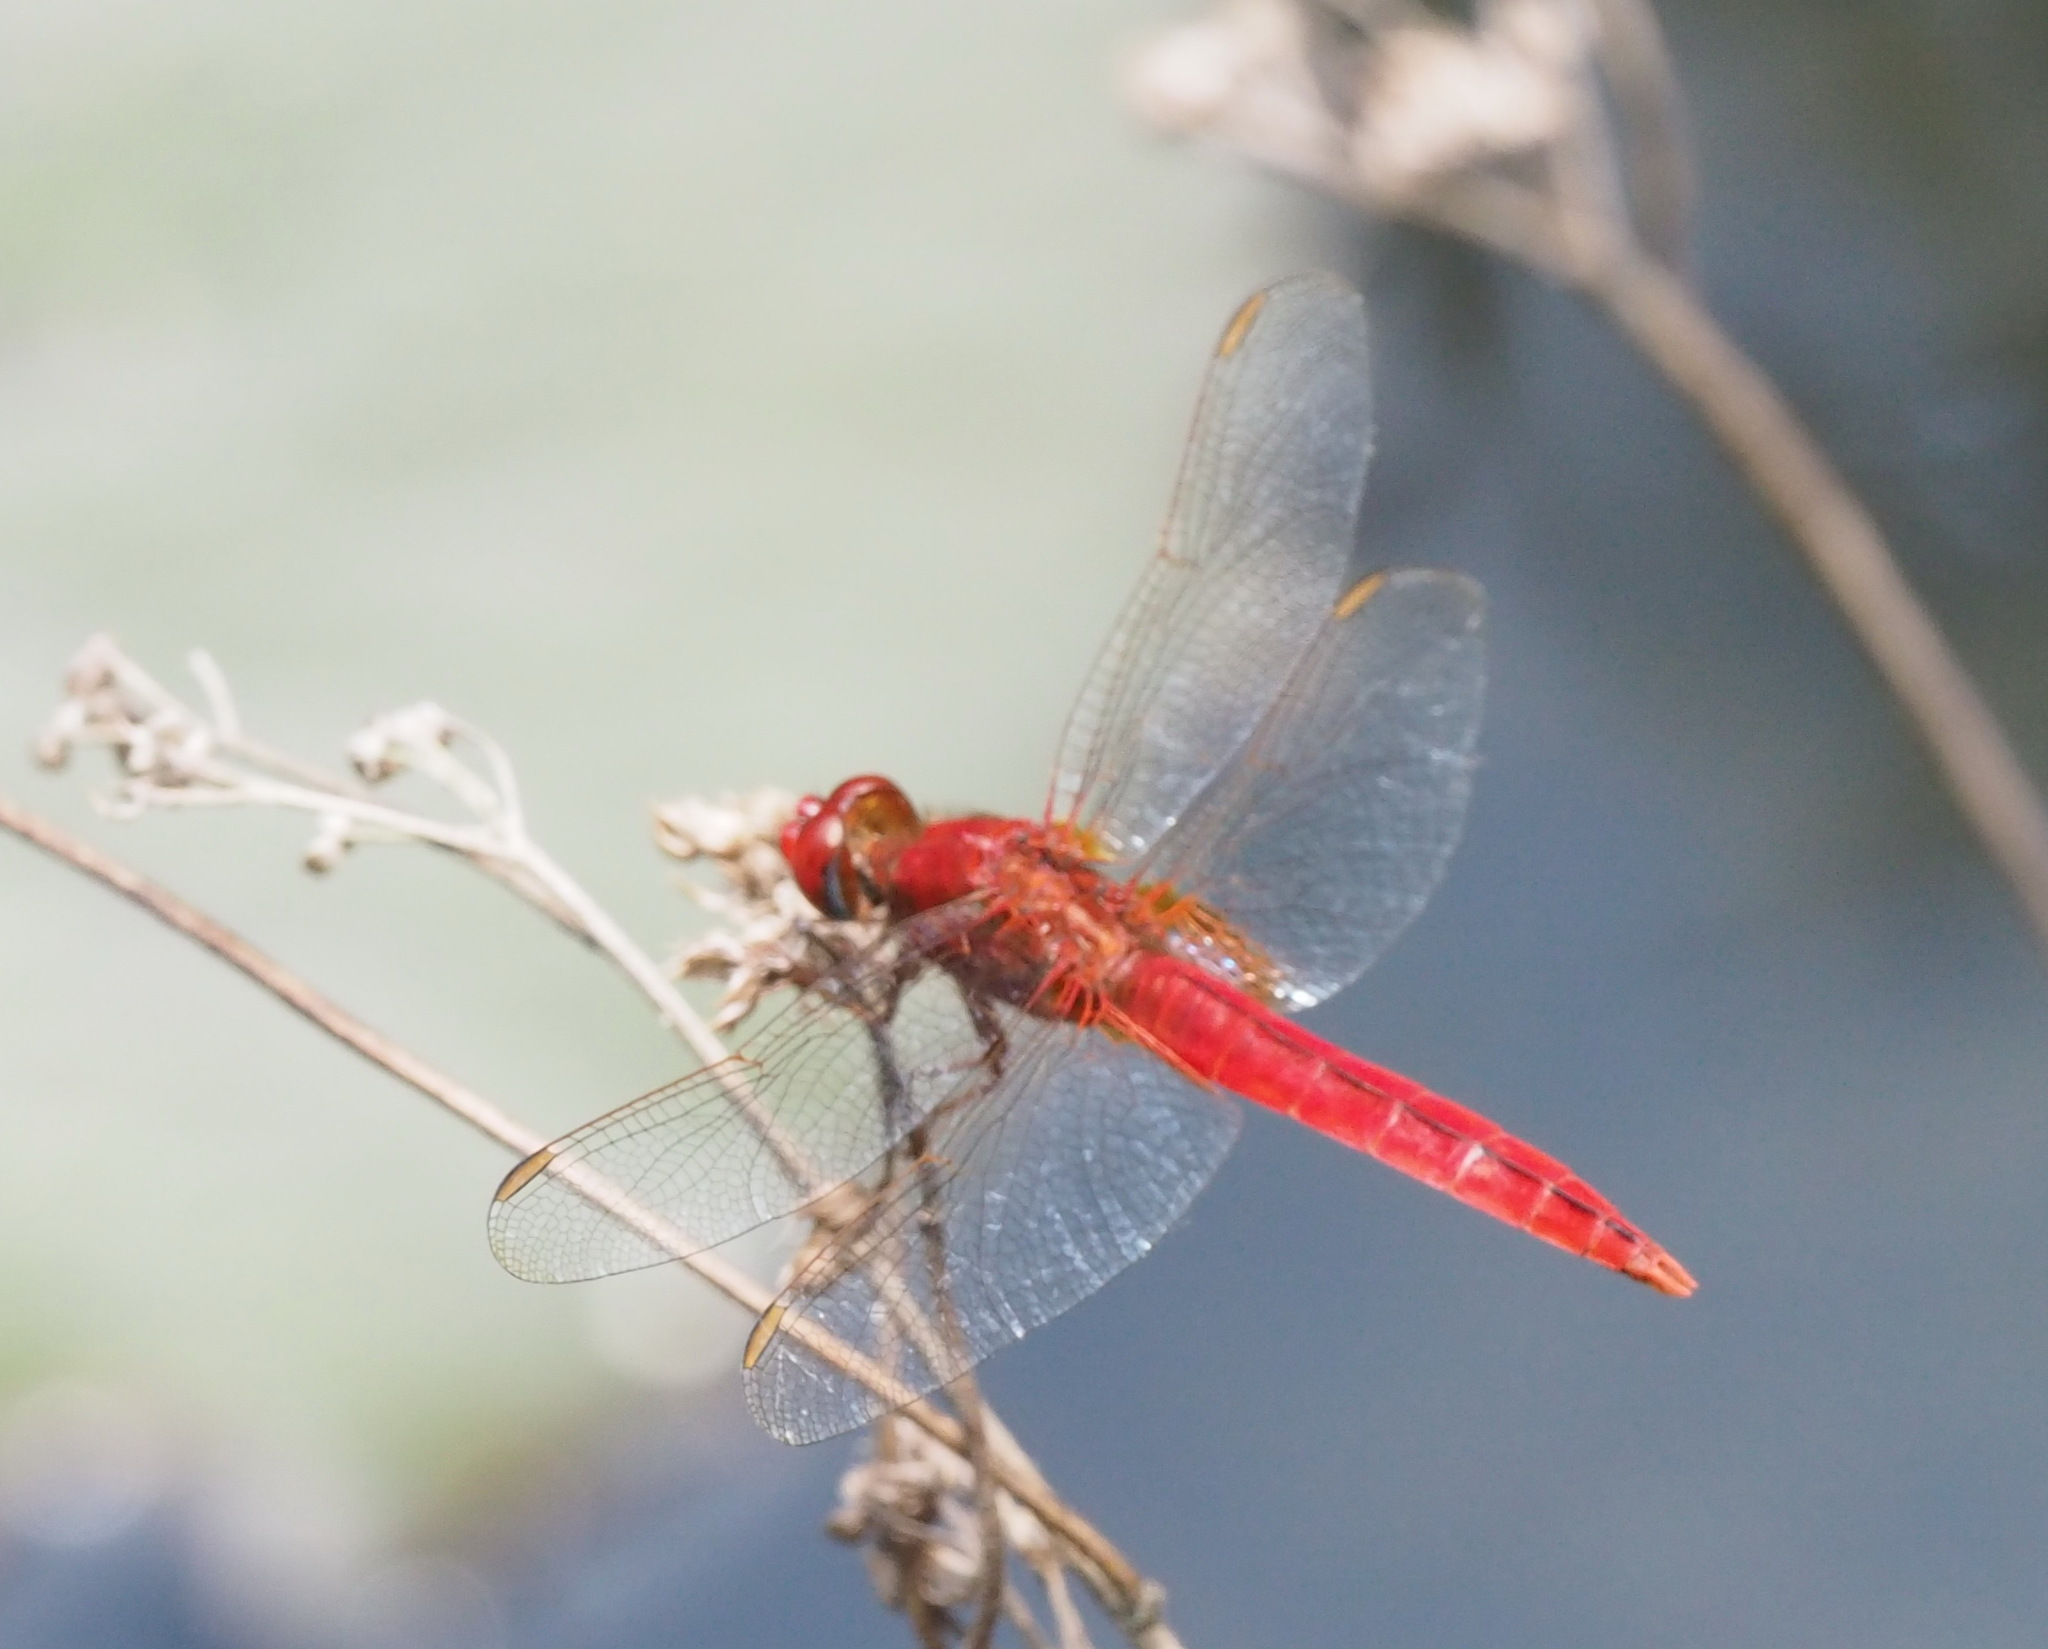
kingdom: Animalia
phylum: Arthropoda
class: Insecta
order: Odonata
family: Libellulidae
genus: Crocothemis
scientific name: Crocothemis servilia
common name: Scarlet skimmer
